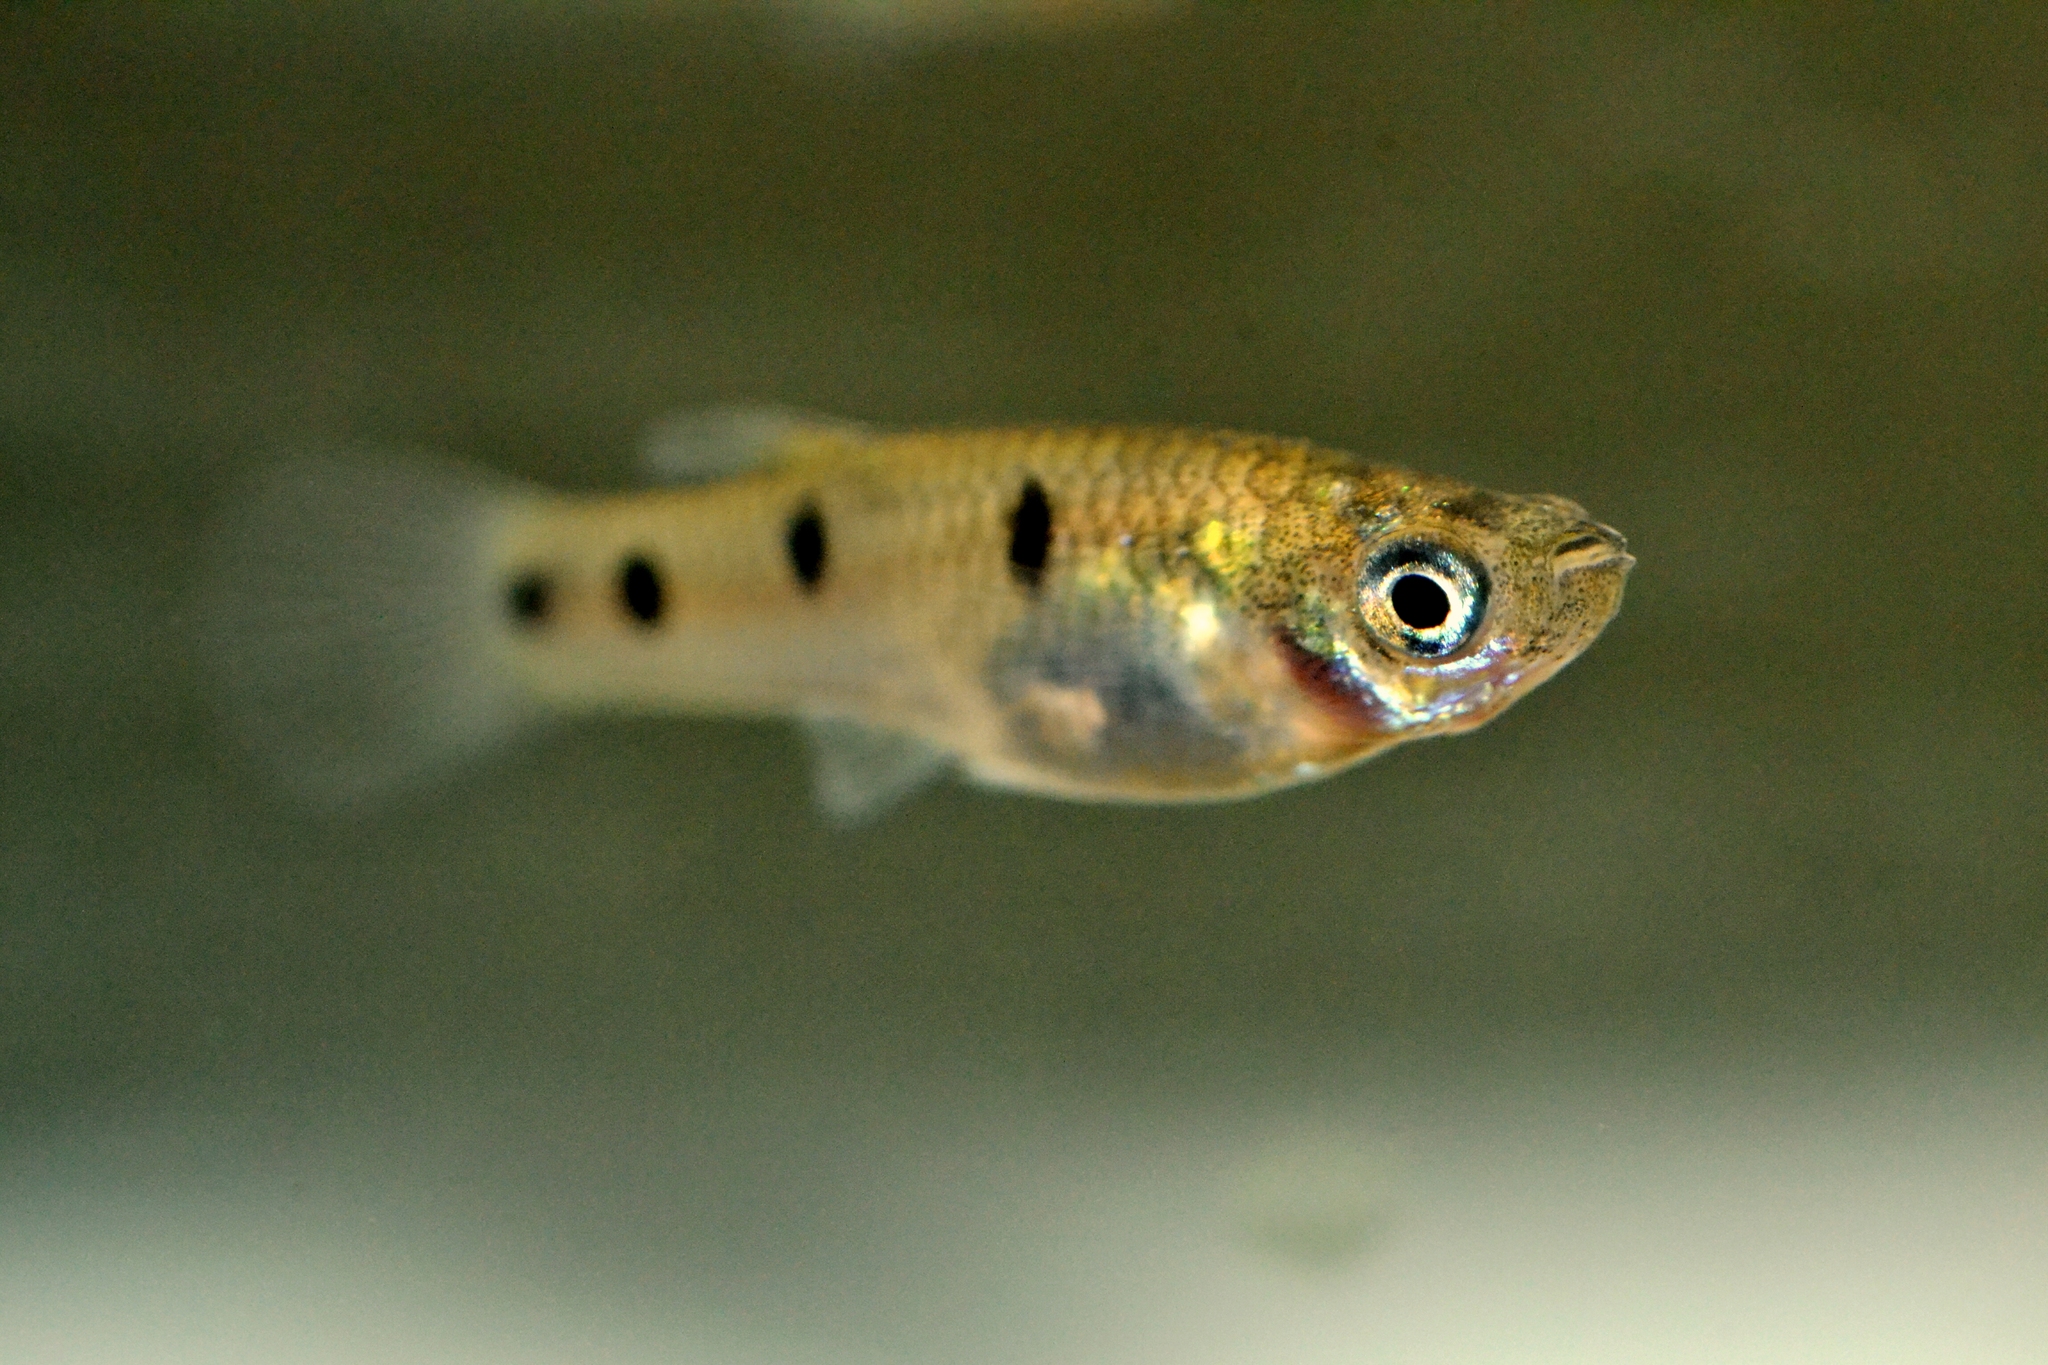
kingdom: Animalia
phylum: Chordata
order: Cyprinodontiformes
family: Poeciliidae
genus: Poeciliopsis
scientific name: Poeciliopsis pleurospilus
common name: Largespot livebearer
